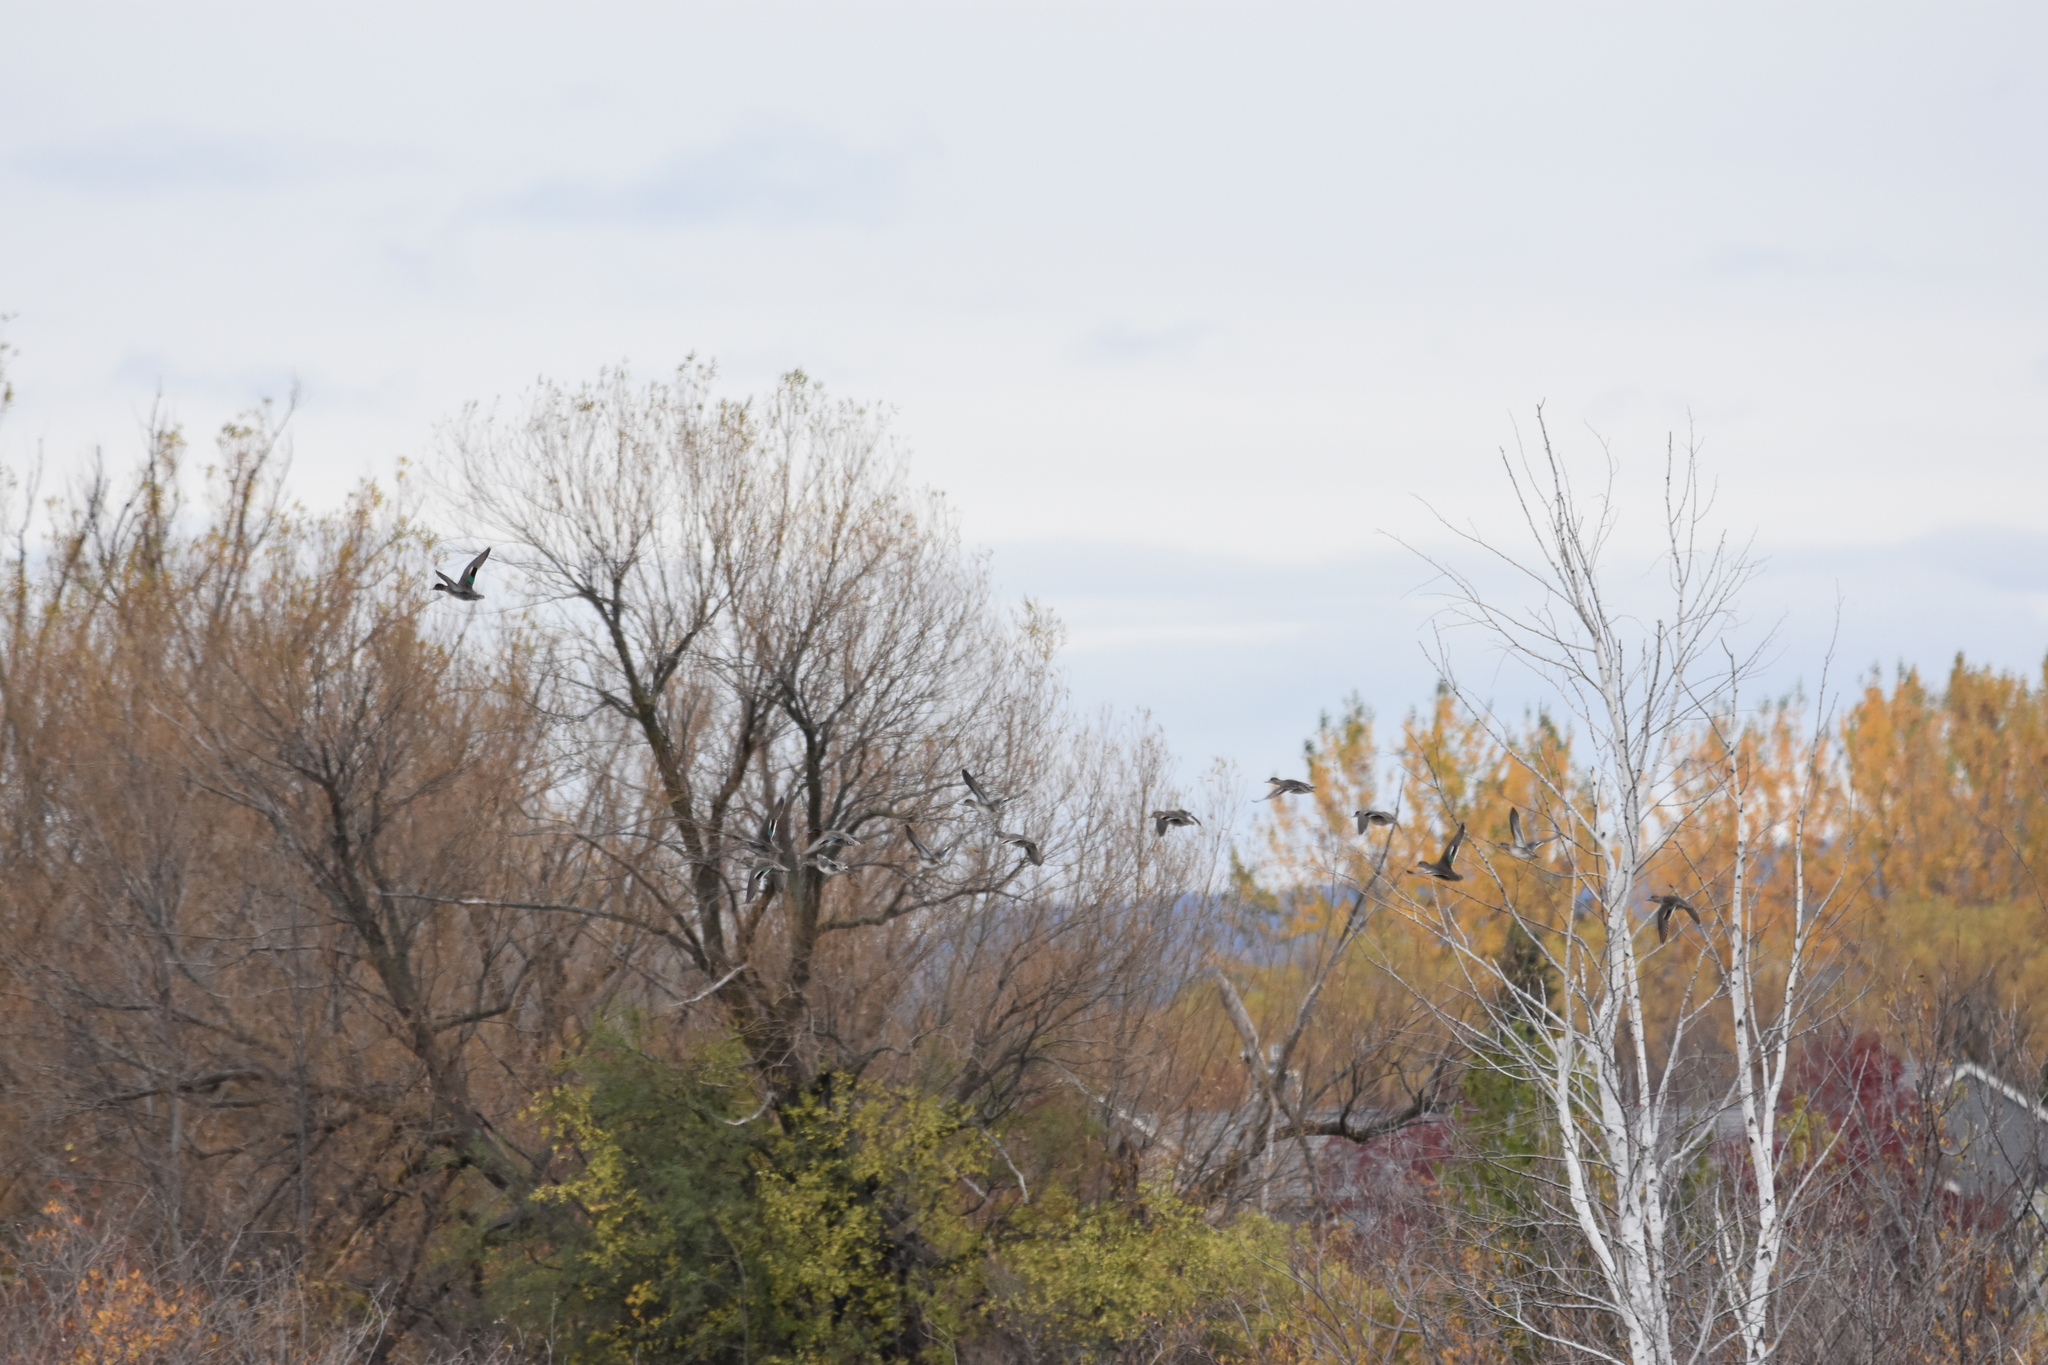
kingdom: Animalia
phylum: Chordata
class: Aves
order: Anseriformes
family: Anatidae
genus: Anas
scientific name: Anas crecca
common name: Eurasian teal
